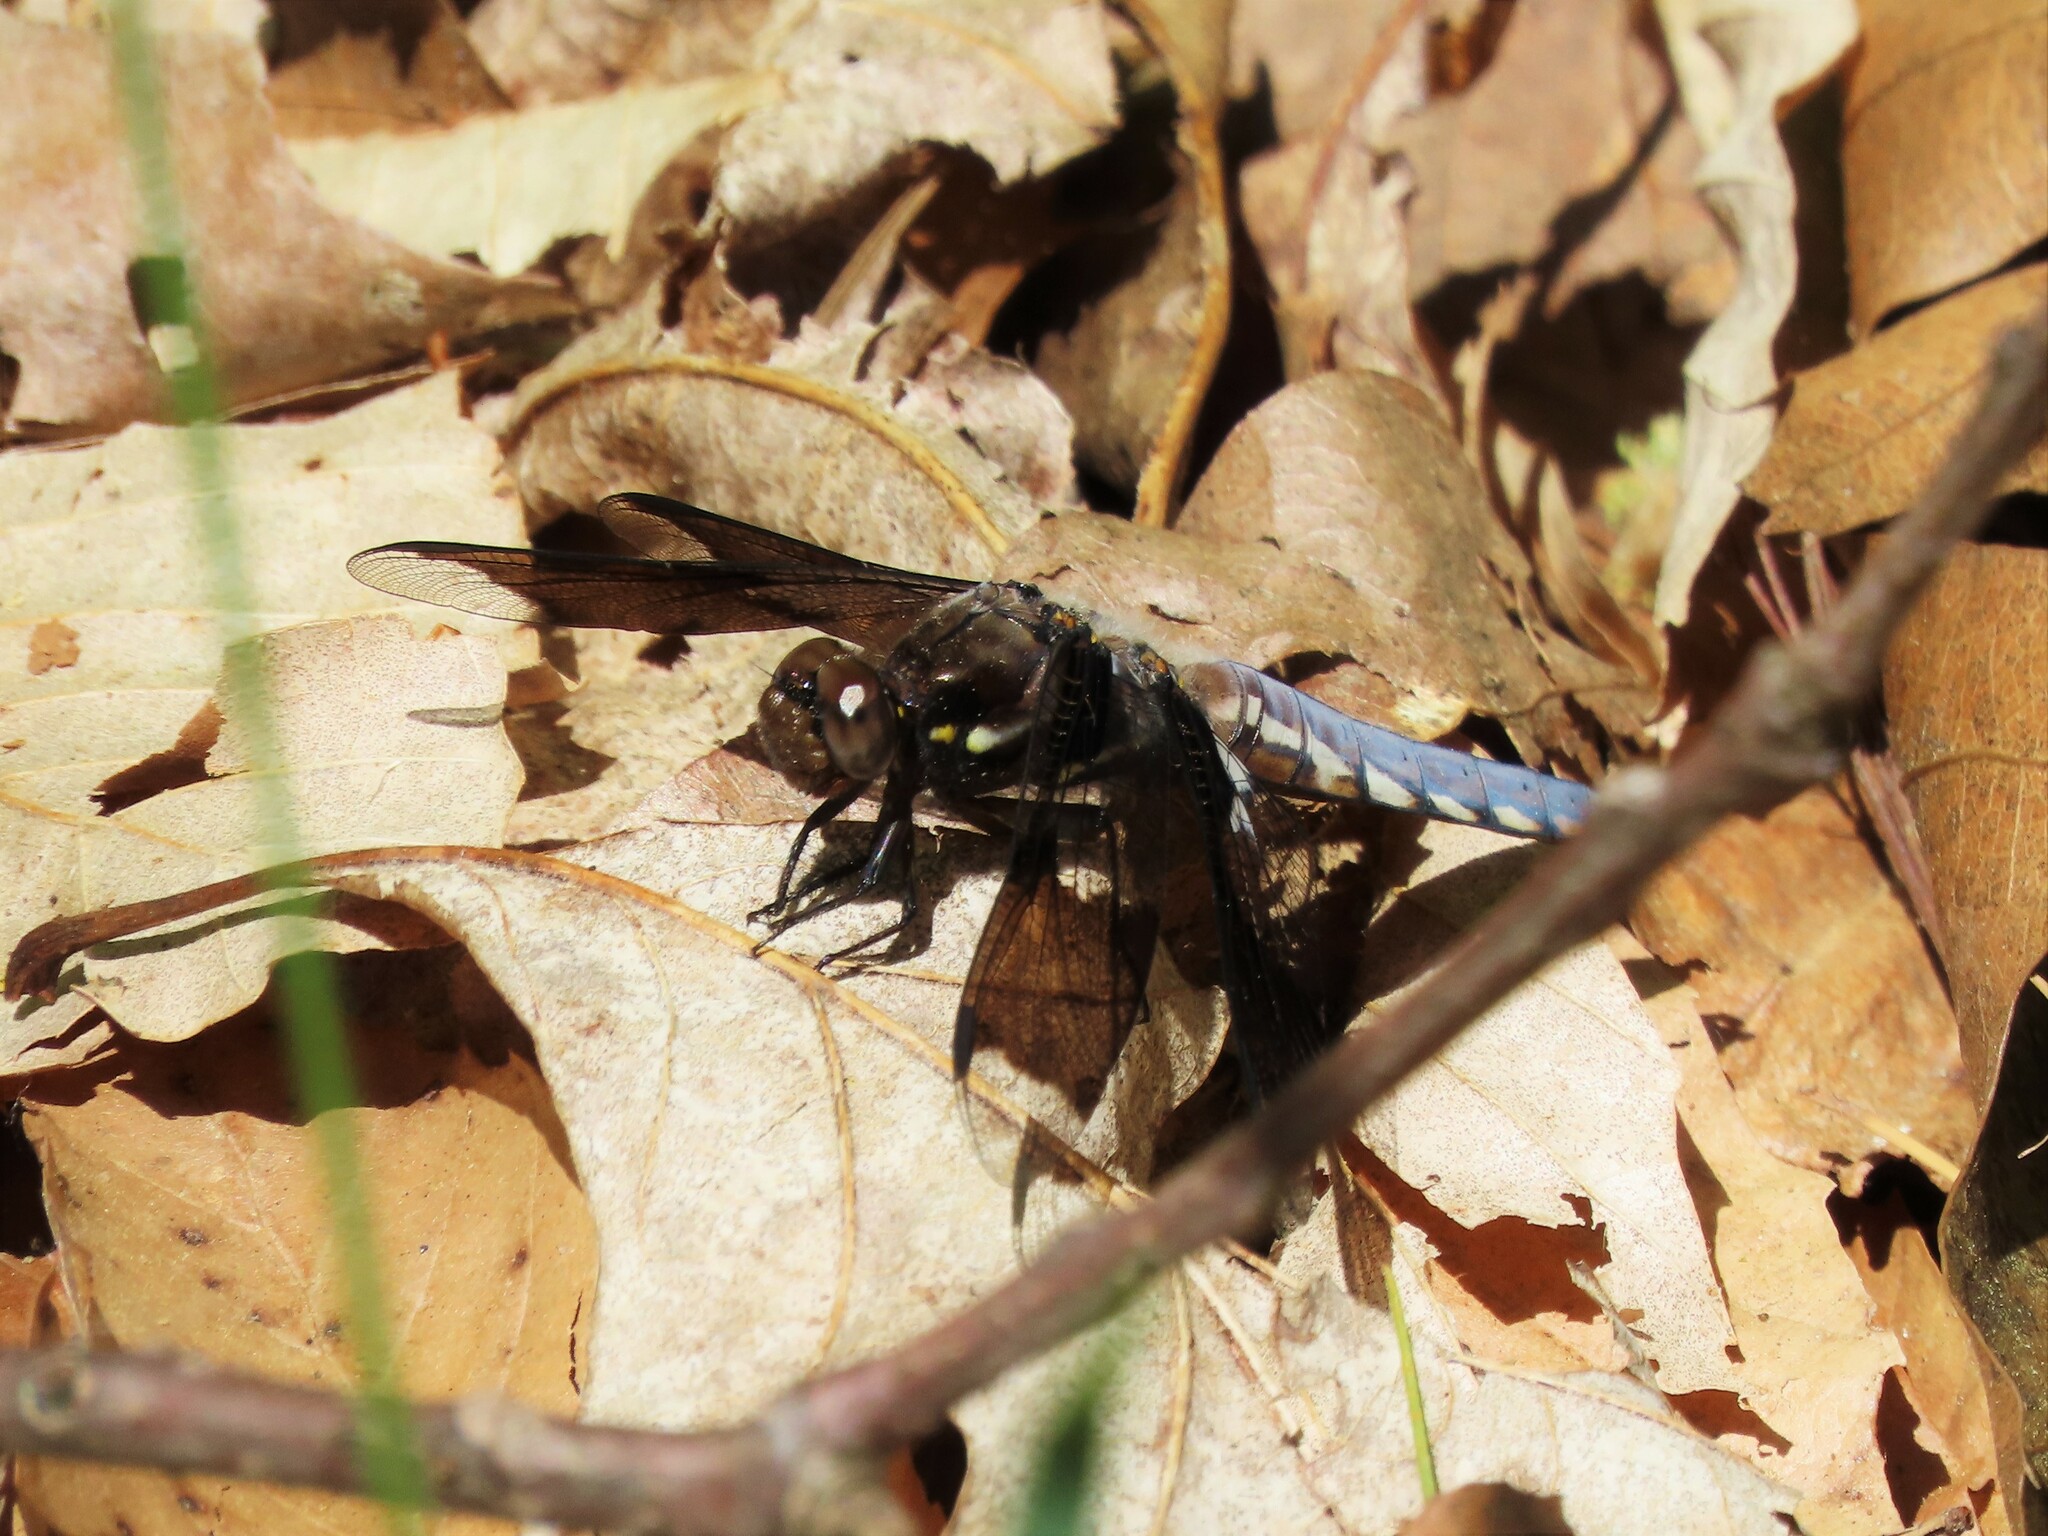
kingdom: Animalia
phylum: Arthropoda
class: Insecta
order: Odonata
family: Libellulidae
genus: Plathemis
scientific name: Plathemis lydia
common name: Common whitetail
